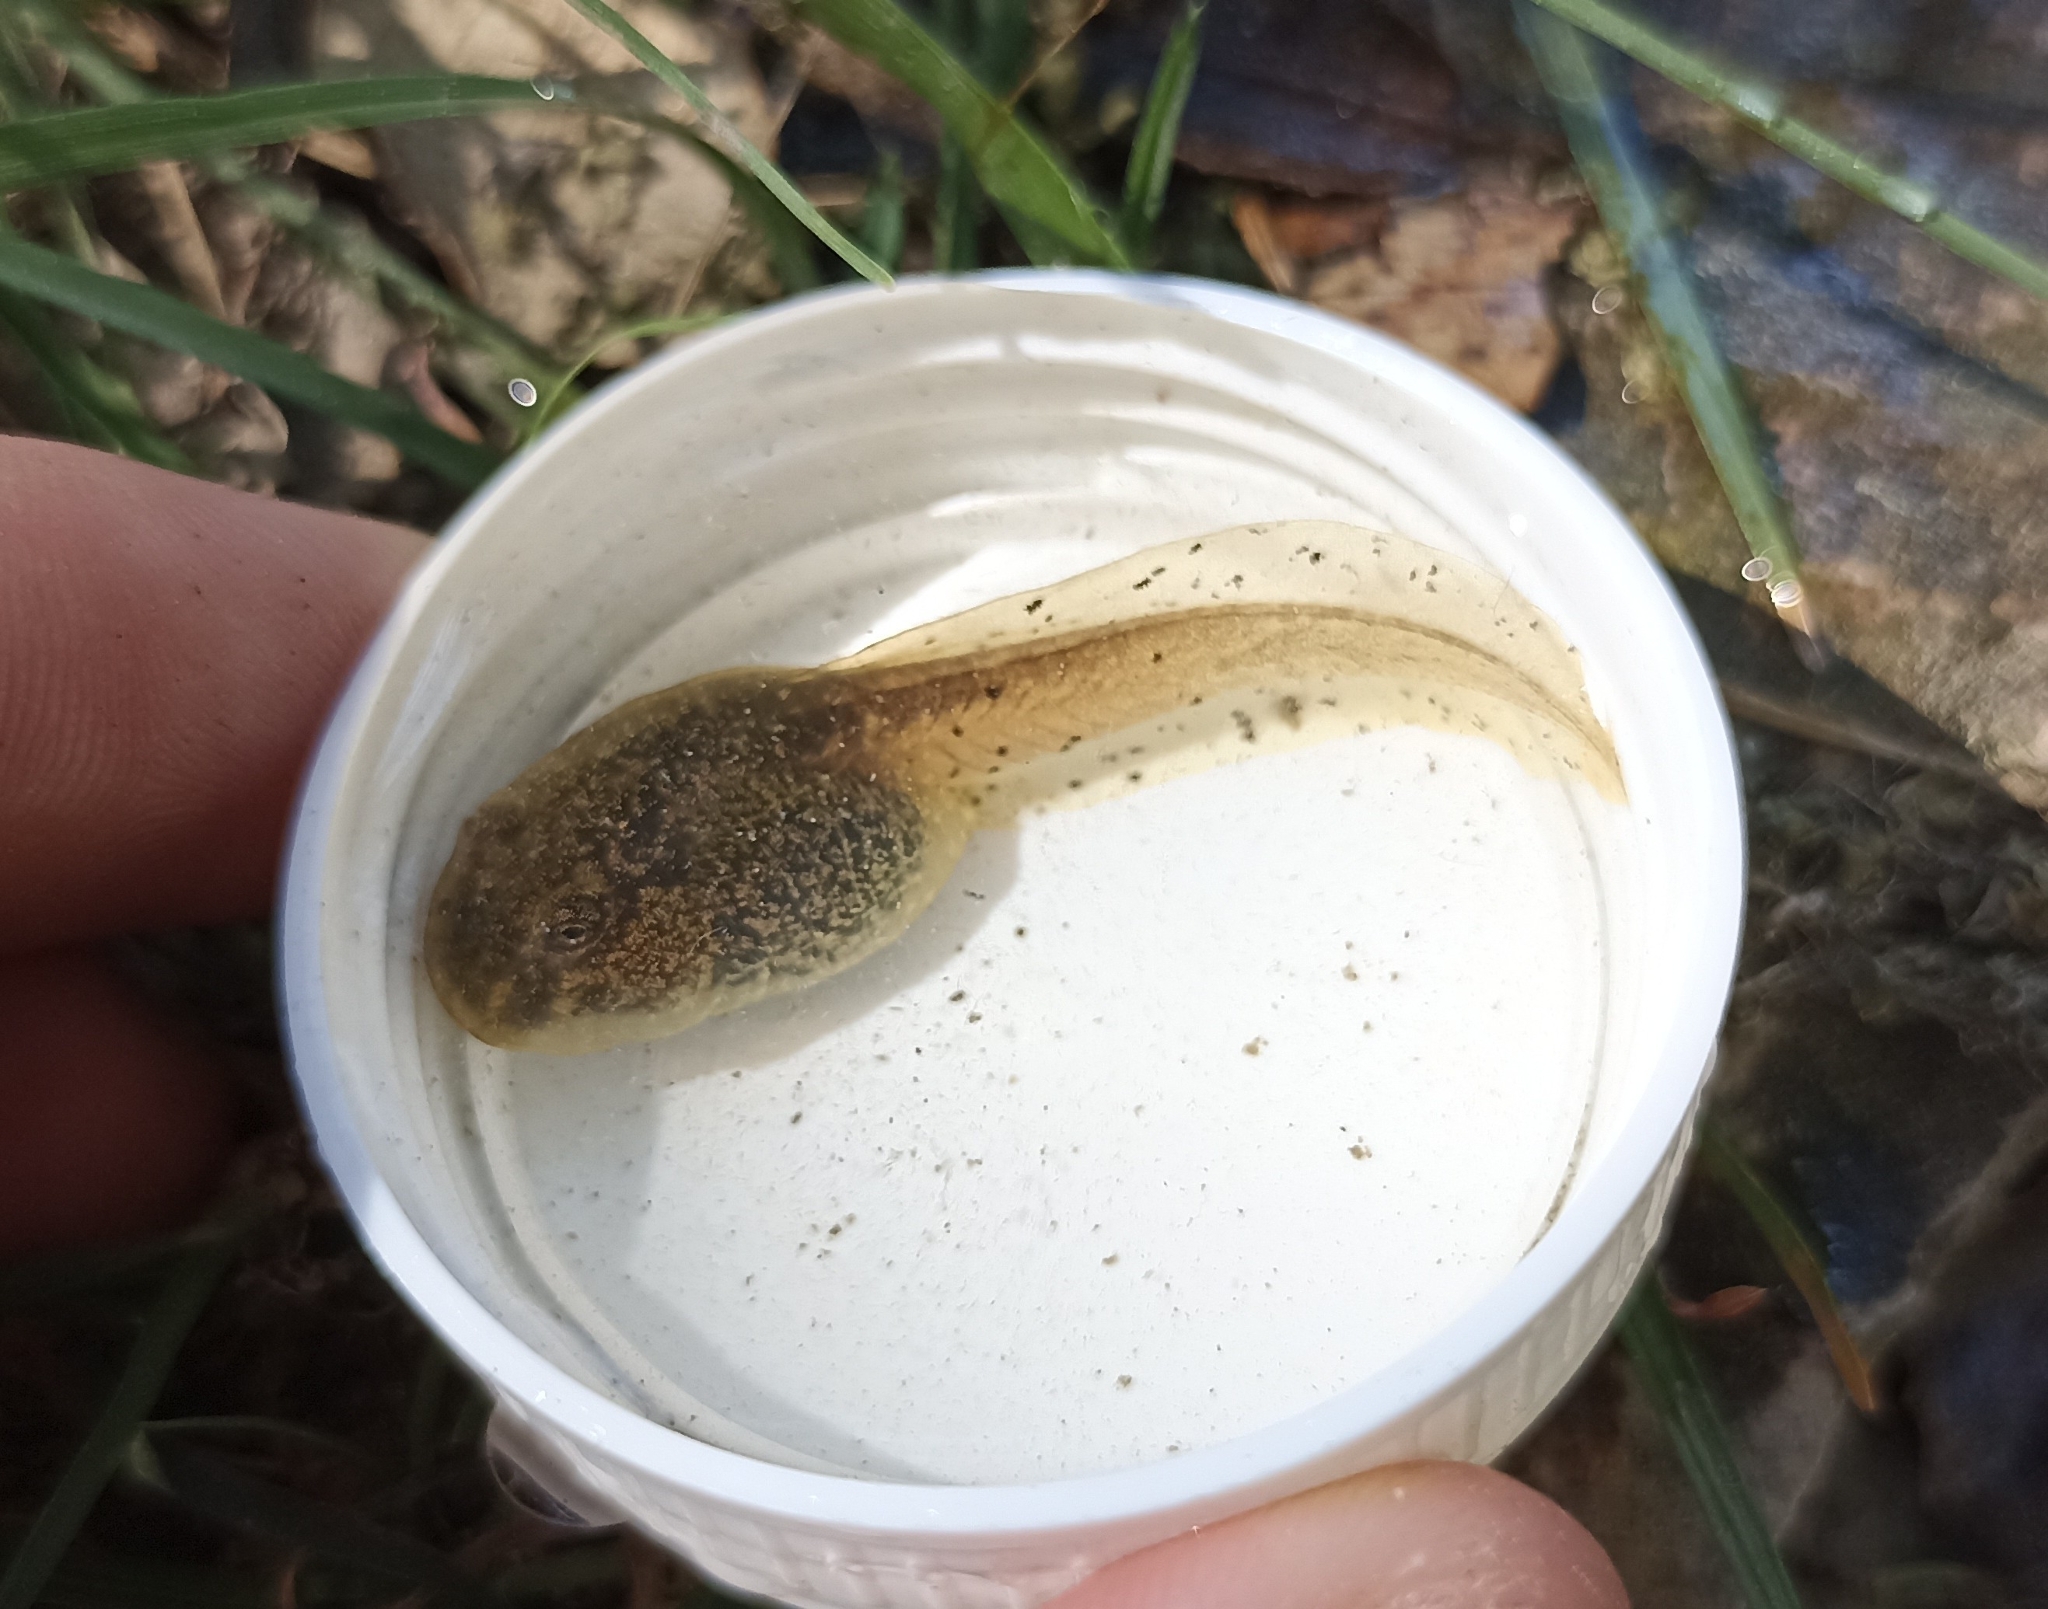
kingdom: Animalia
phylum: Chordata
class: Amphibia
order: Anura
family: Alytidae
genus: Alytes
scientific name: Alytes obstetricans
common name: Midwife toad
